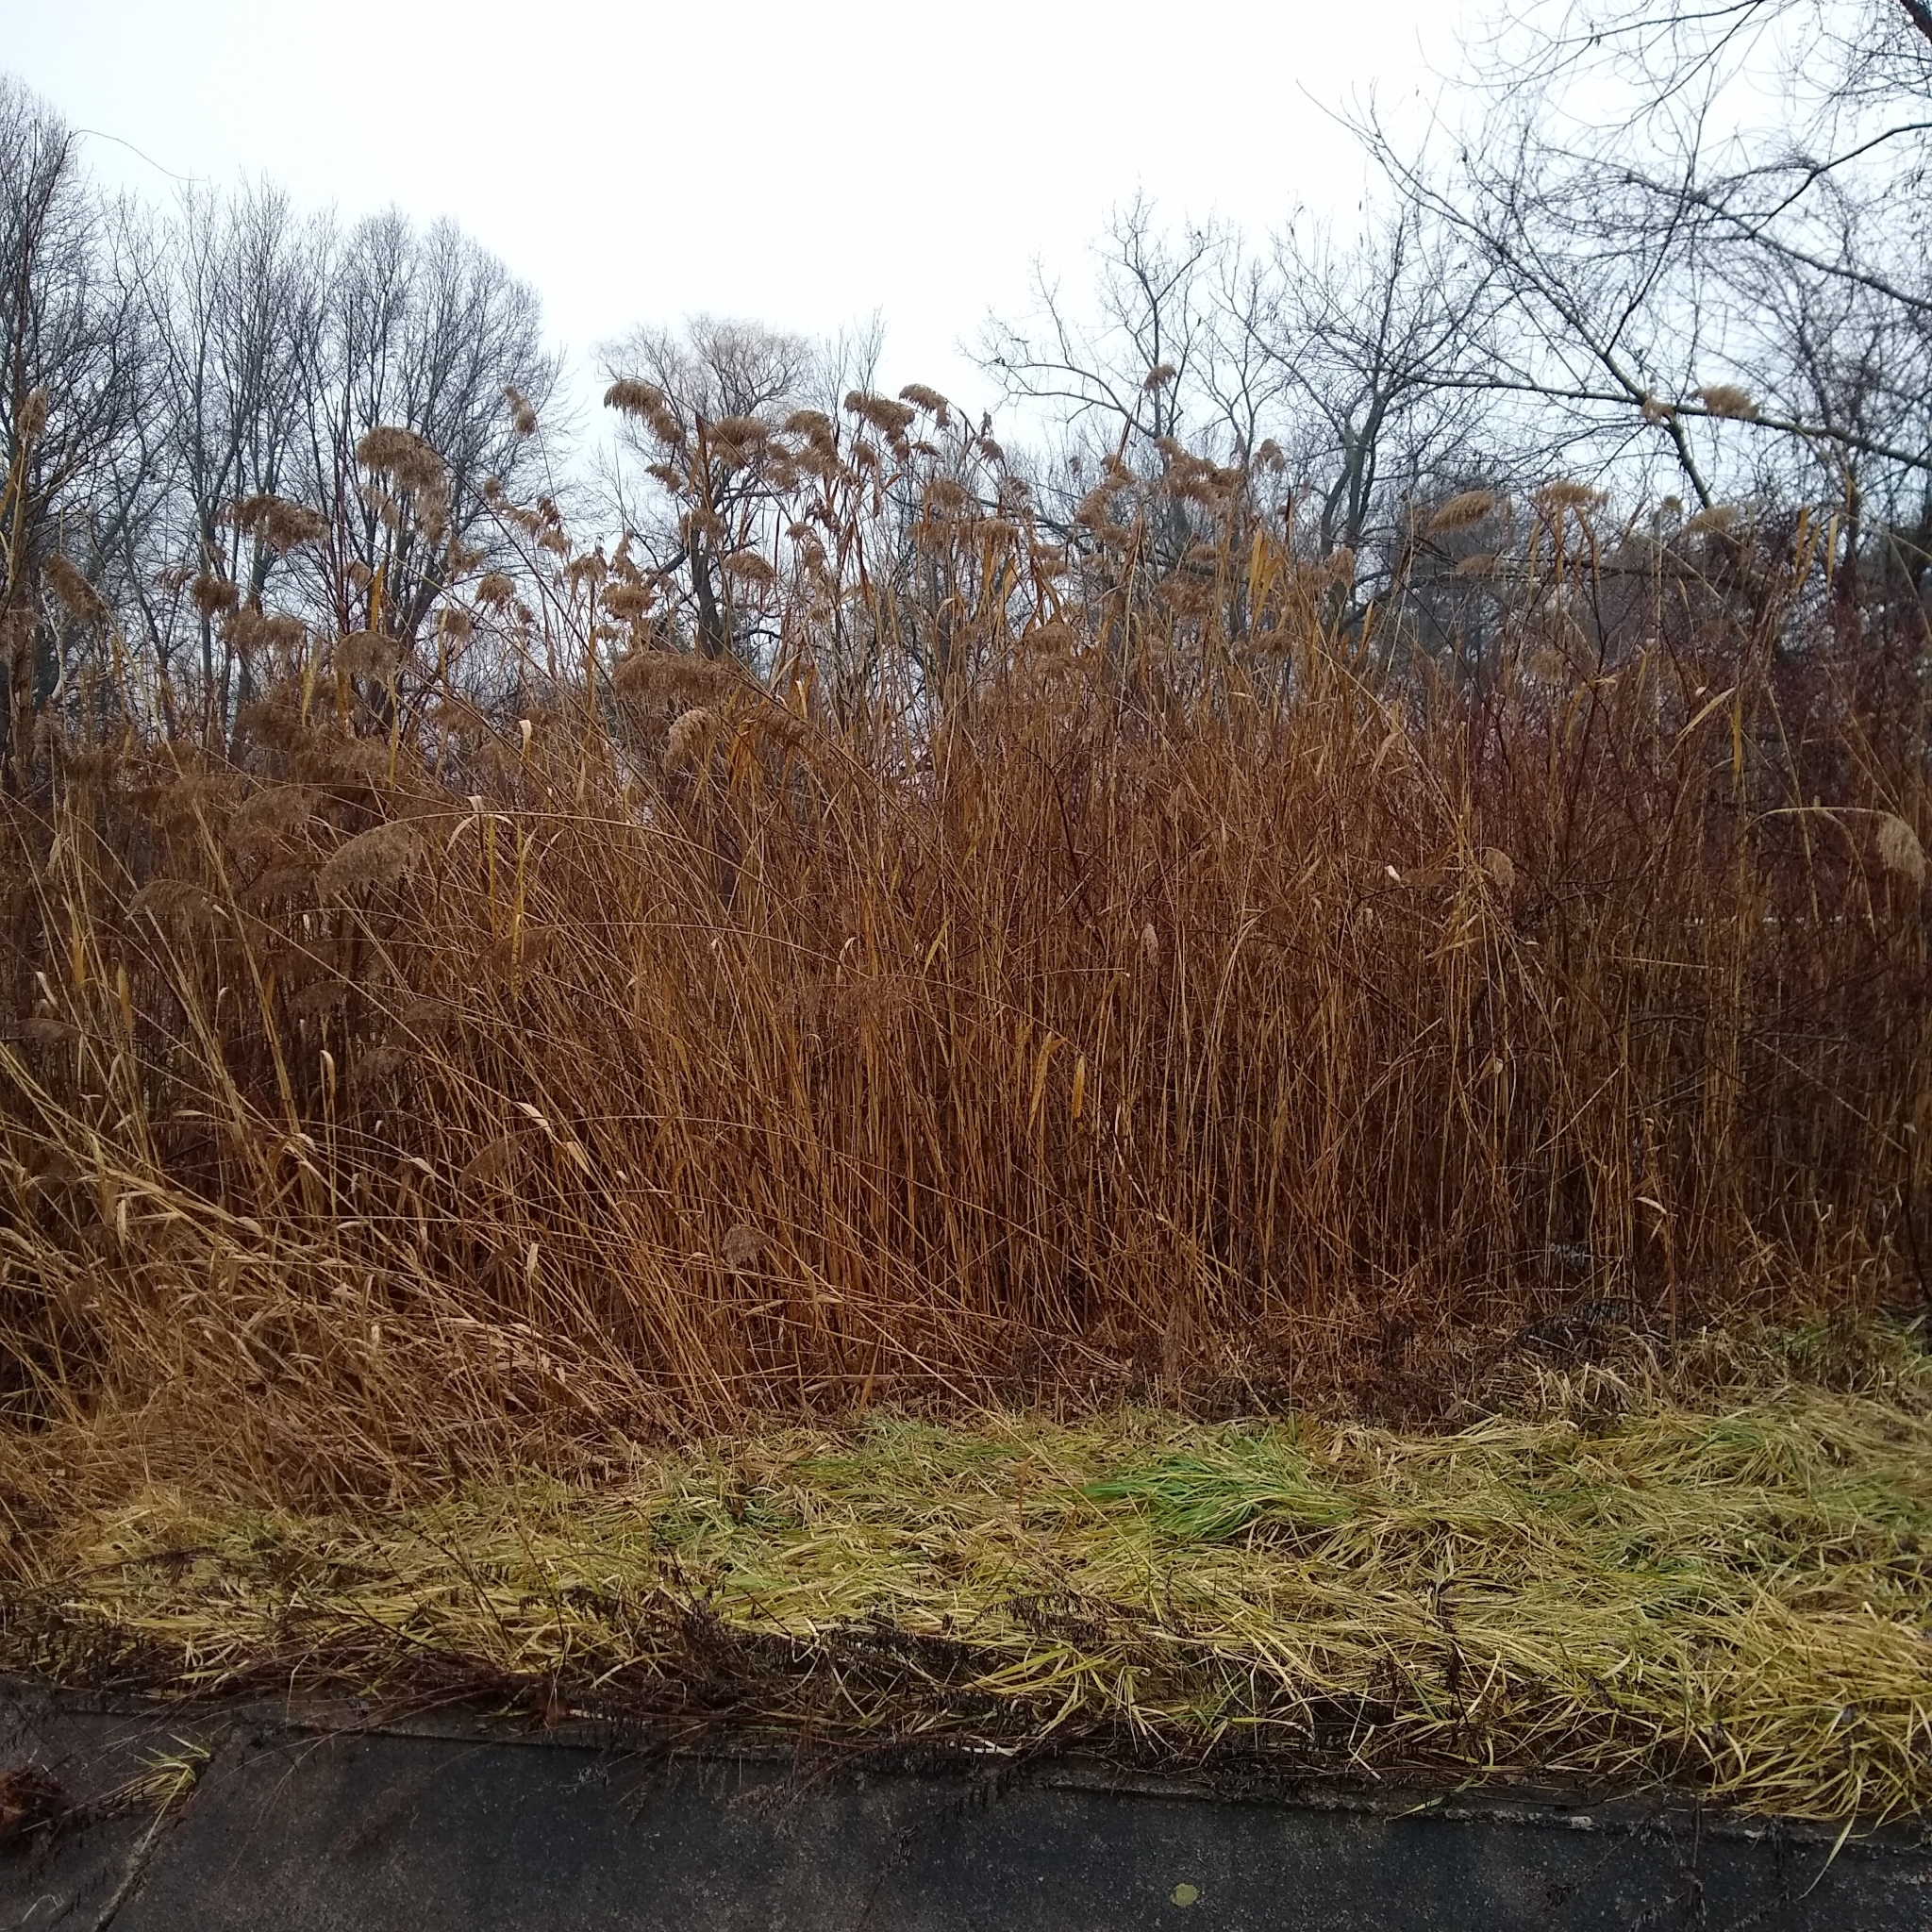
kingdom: Plantae
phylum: Tracheophyta
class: Liliopsida
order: Poales
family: Poaceae
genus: Phragmites
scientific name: Phragmites australis
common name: Common reed
